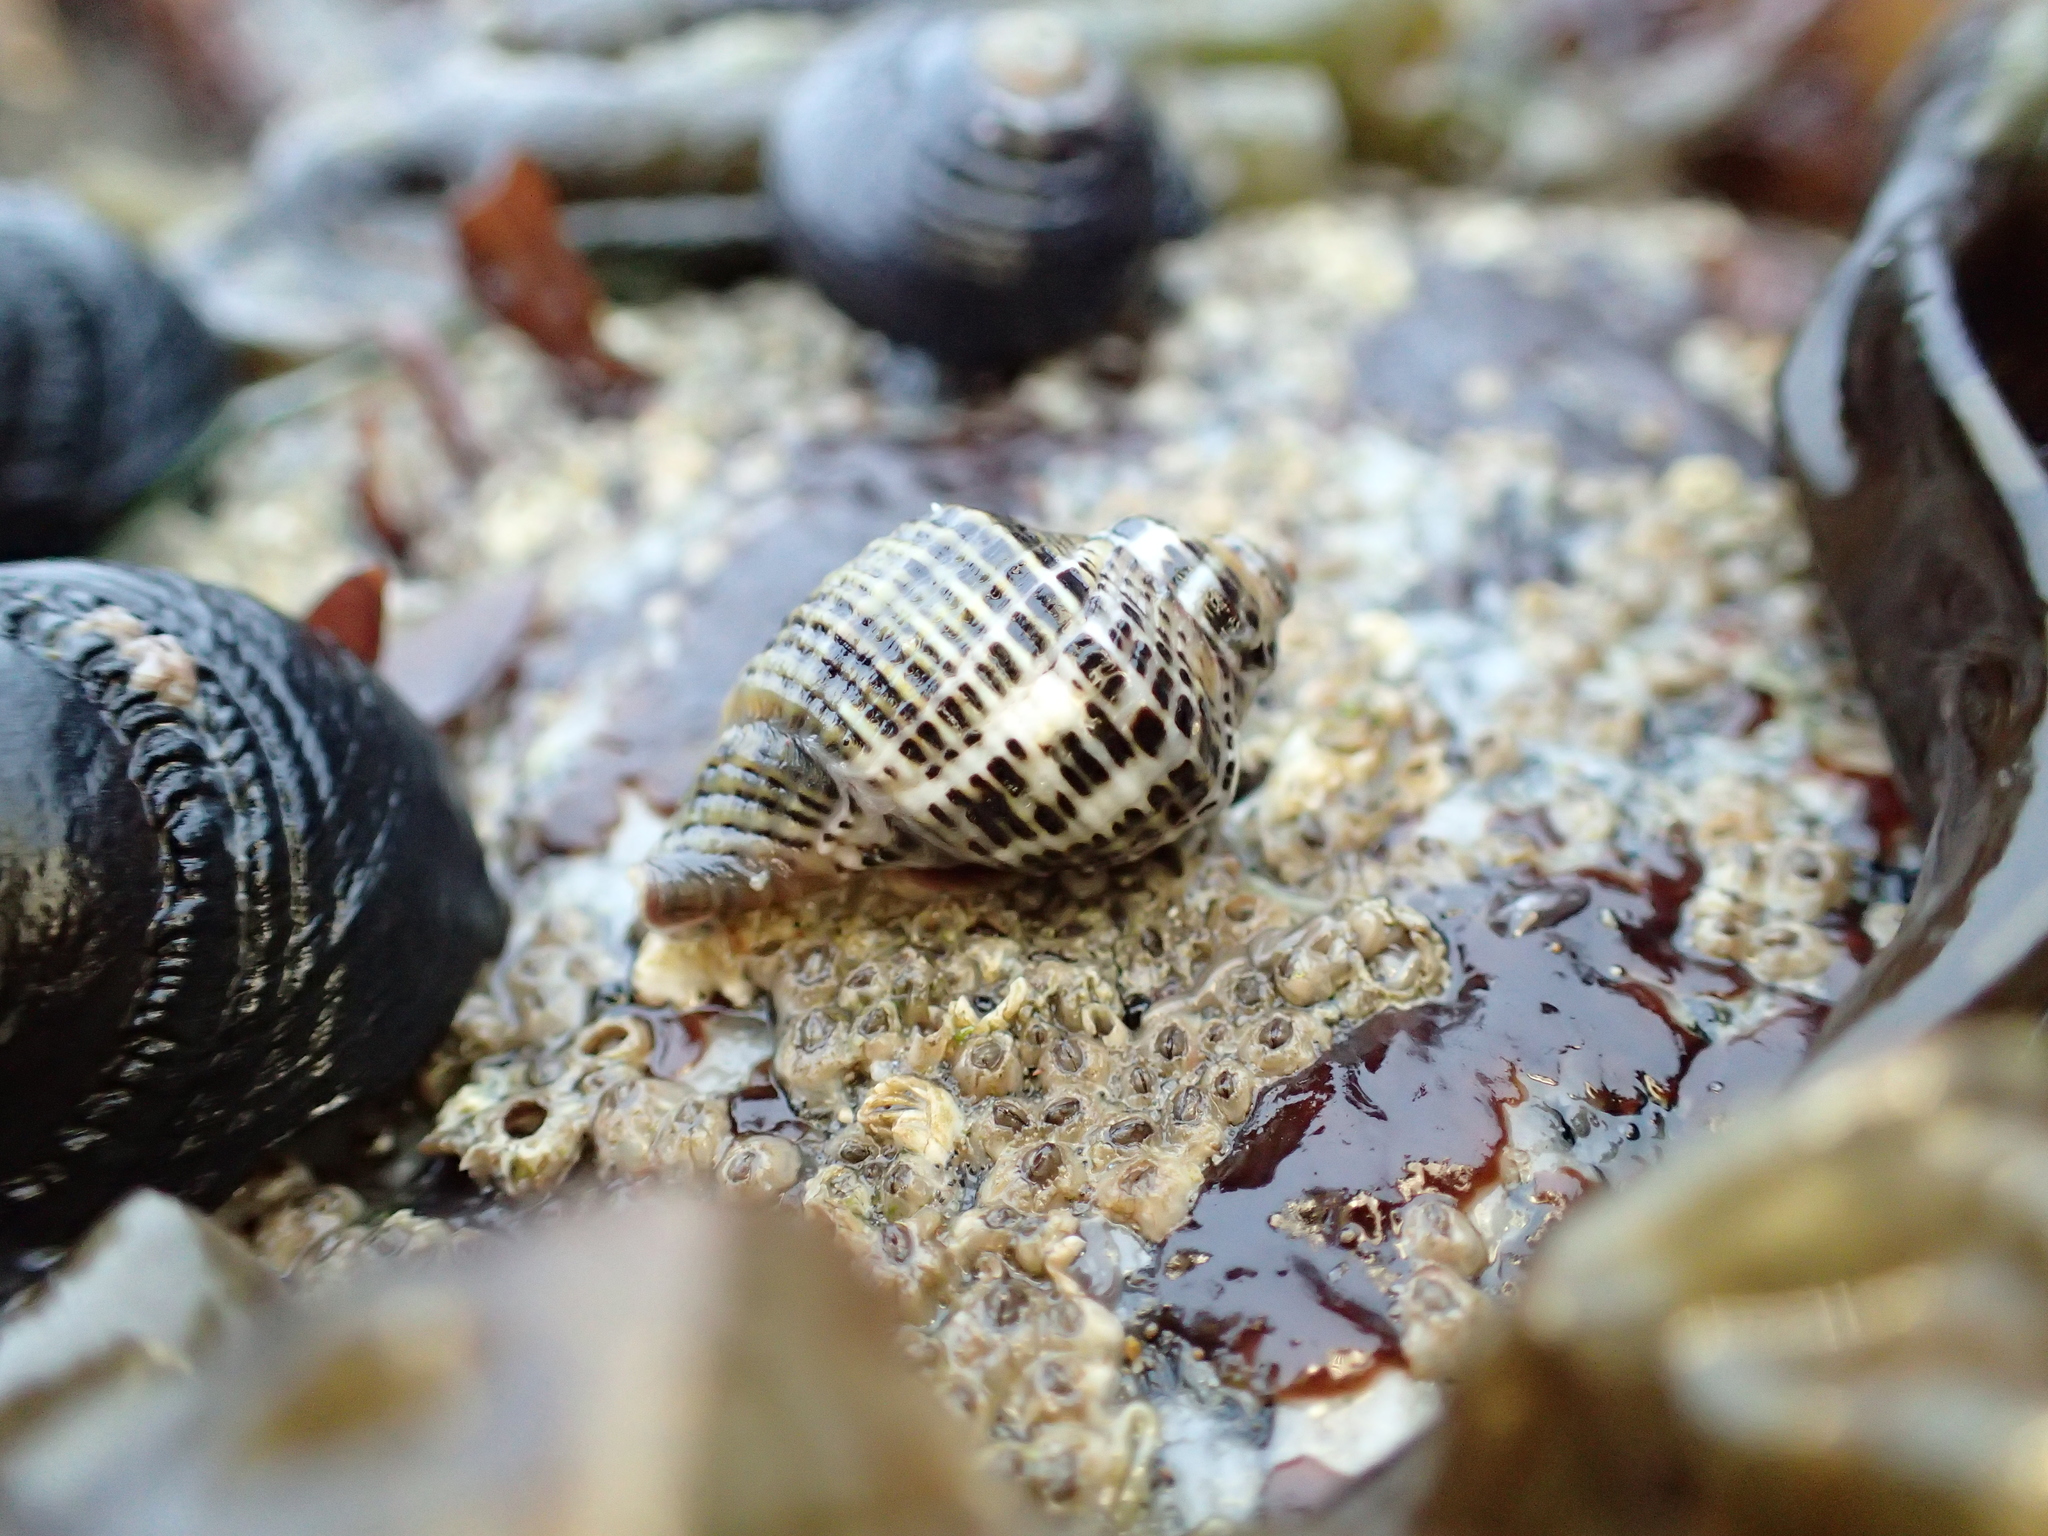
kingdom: Animalia
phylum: Mollusca
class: Gastropoda
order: Neogastropoda
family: Muricidae
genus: Acanthinucella
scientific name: Acanthinucella spirata
